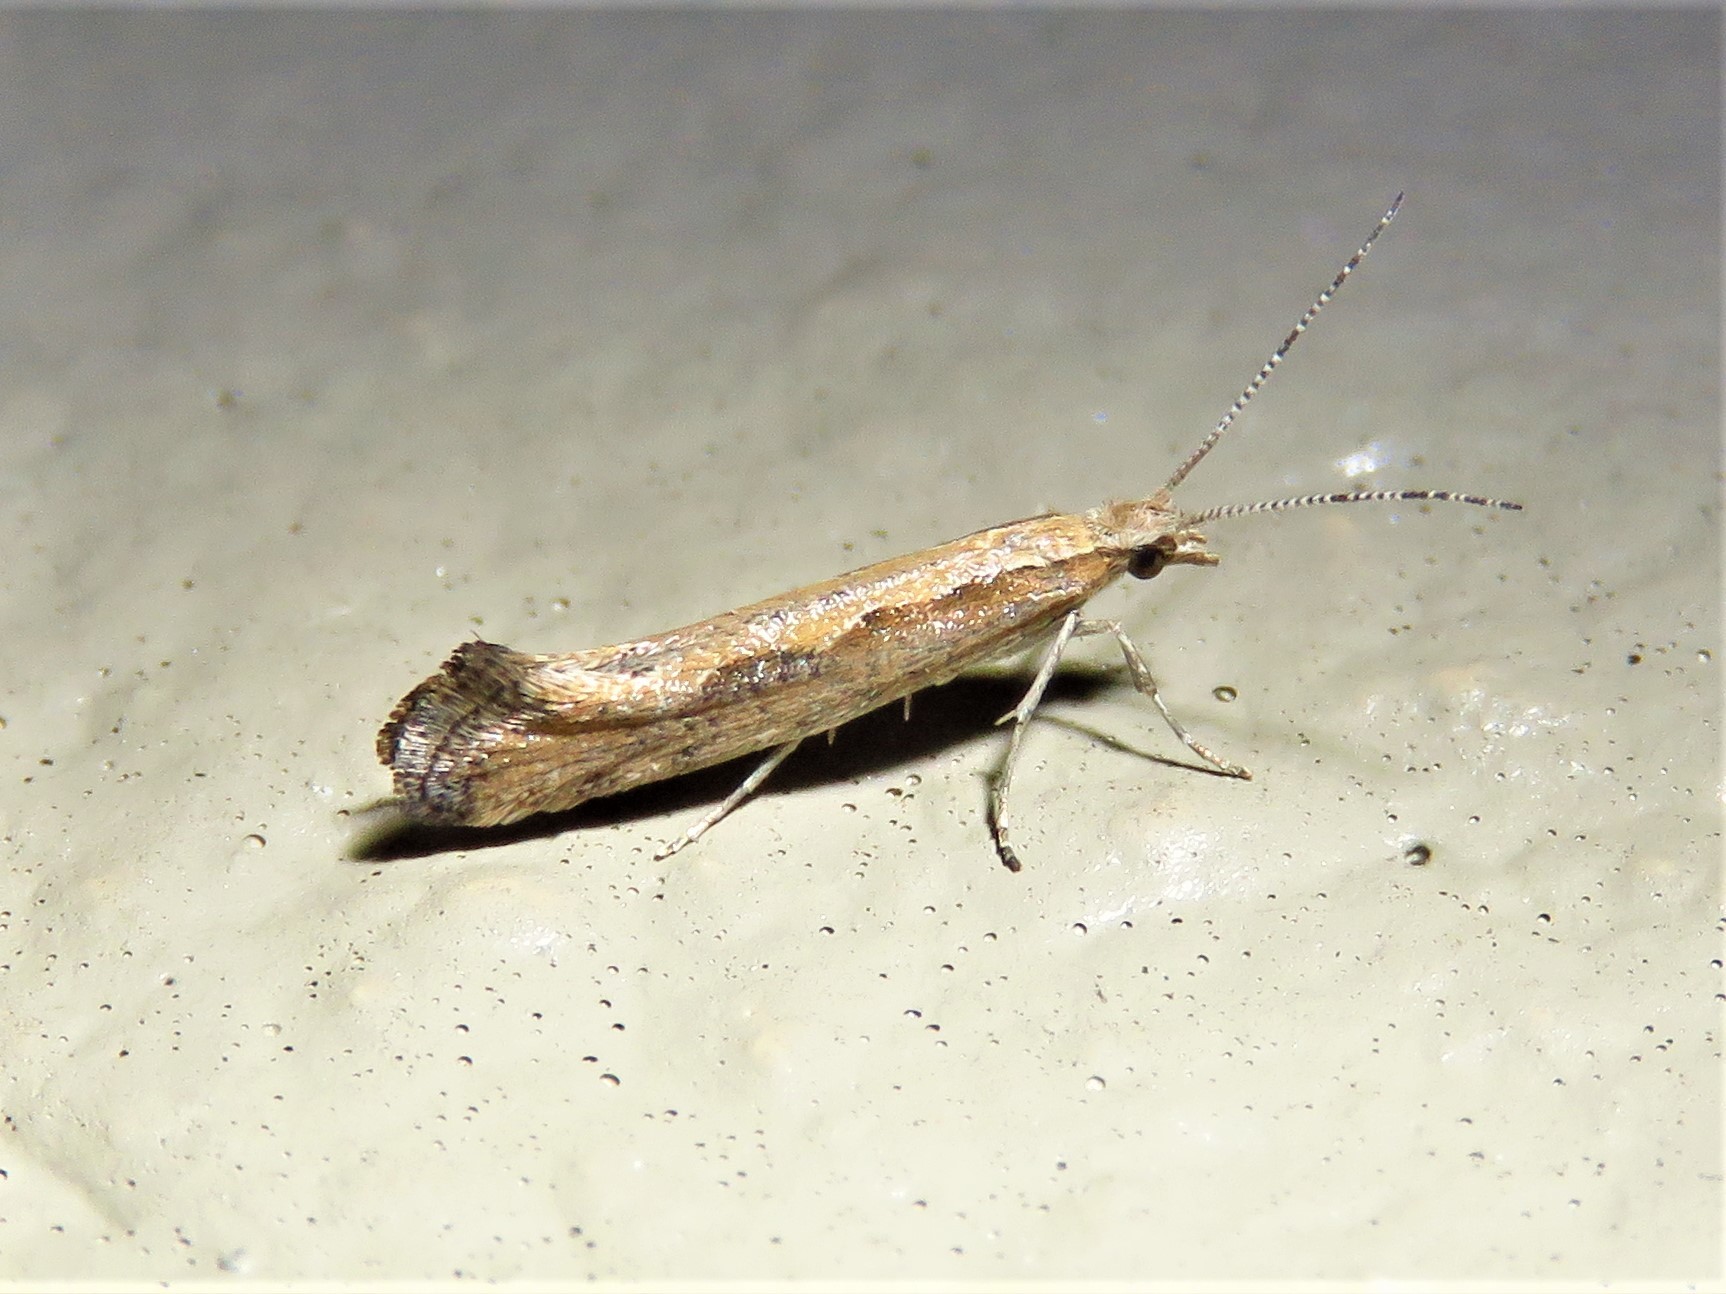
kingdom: Animalia
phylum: Arthropoda
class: Insecta
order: Lepidoptera
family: Plutellidae
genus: Plutella
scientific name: Plutella xylostella
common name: Diamond-back moth
